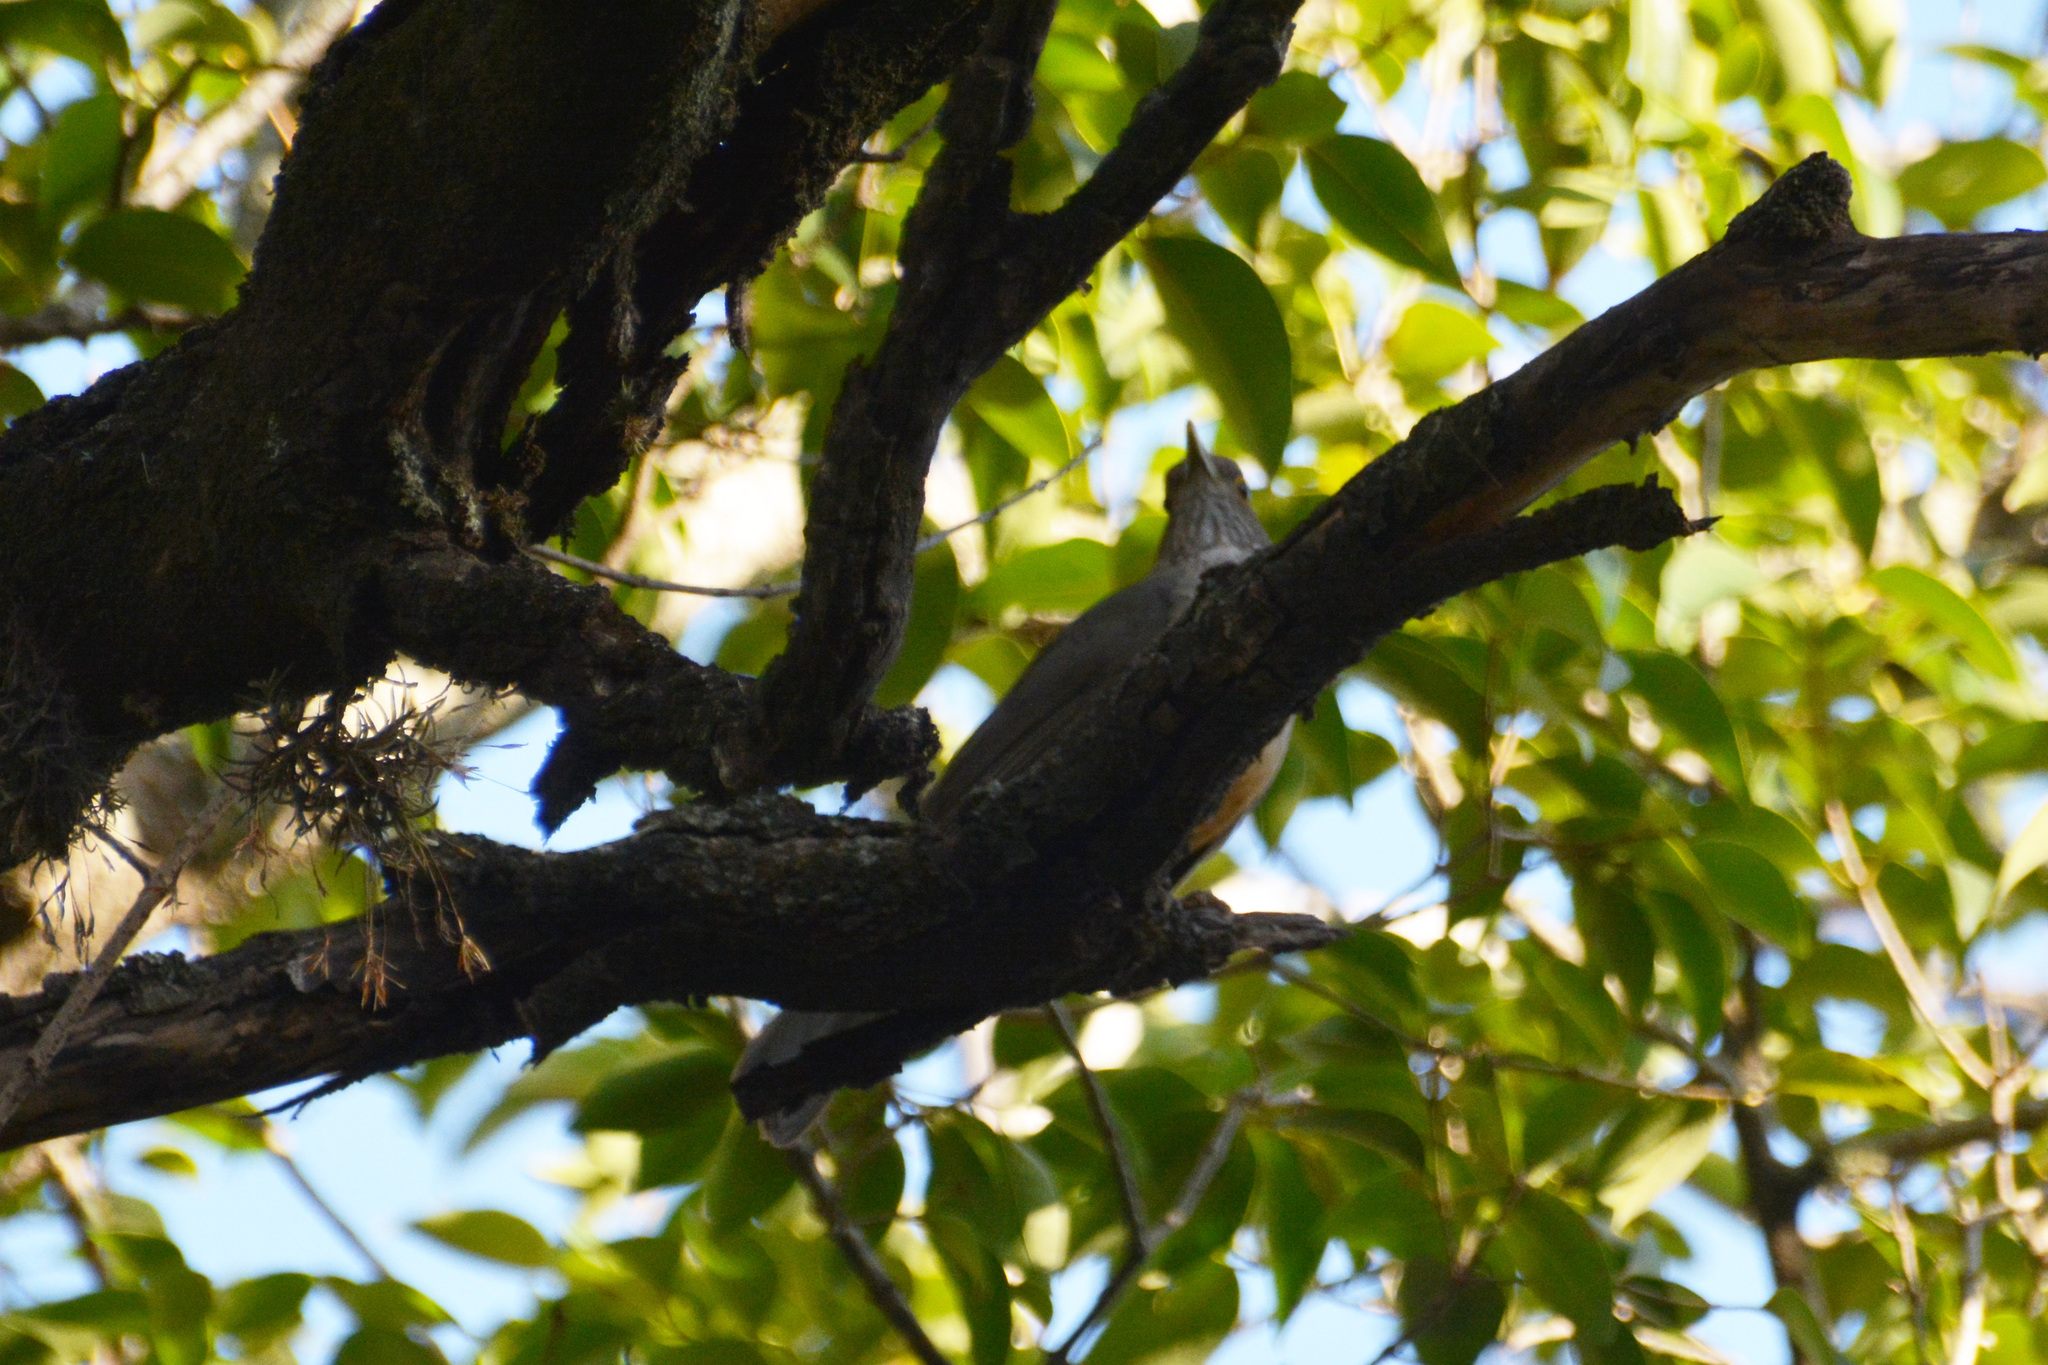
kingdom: Animalia
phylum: Chordata
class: Aves
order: Passeriformes
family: Turdidae
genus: Turdus
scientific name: Turdus rufiventris
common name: Rufous-bellied thrush
